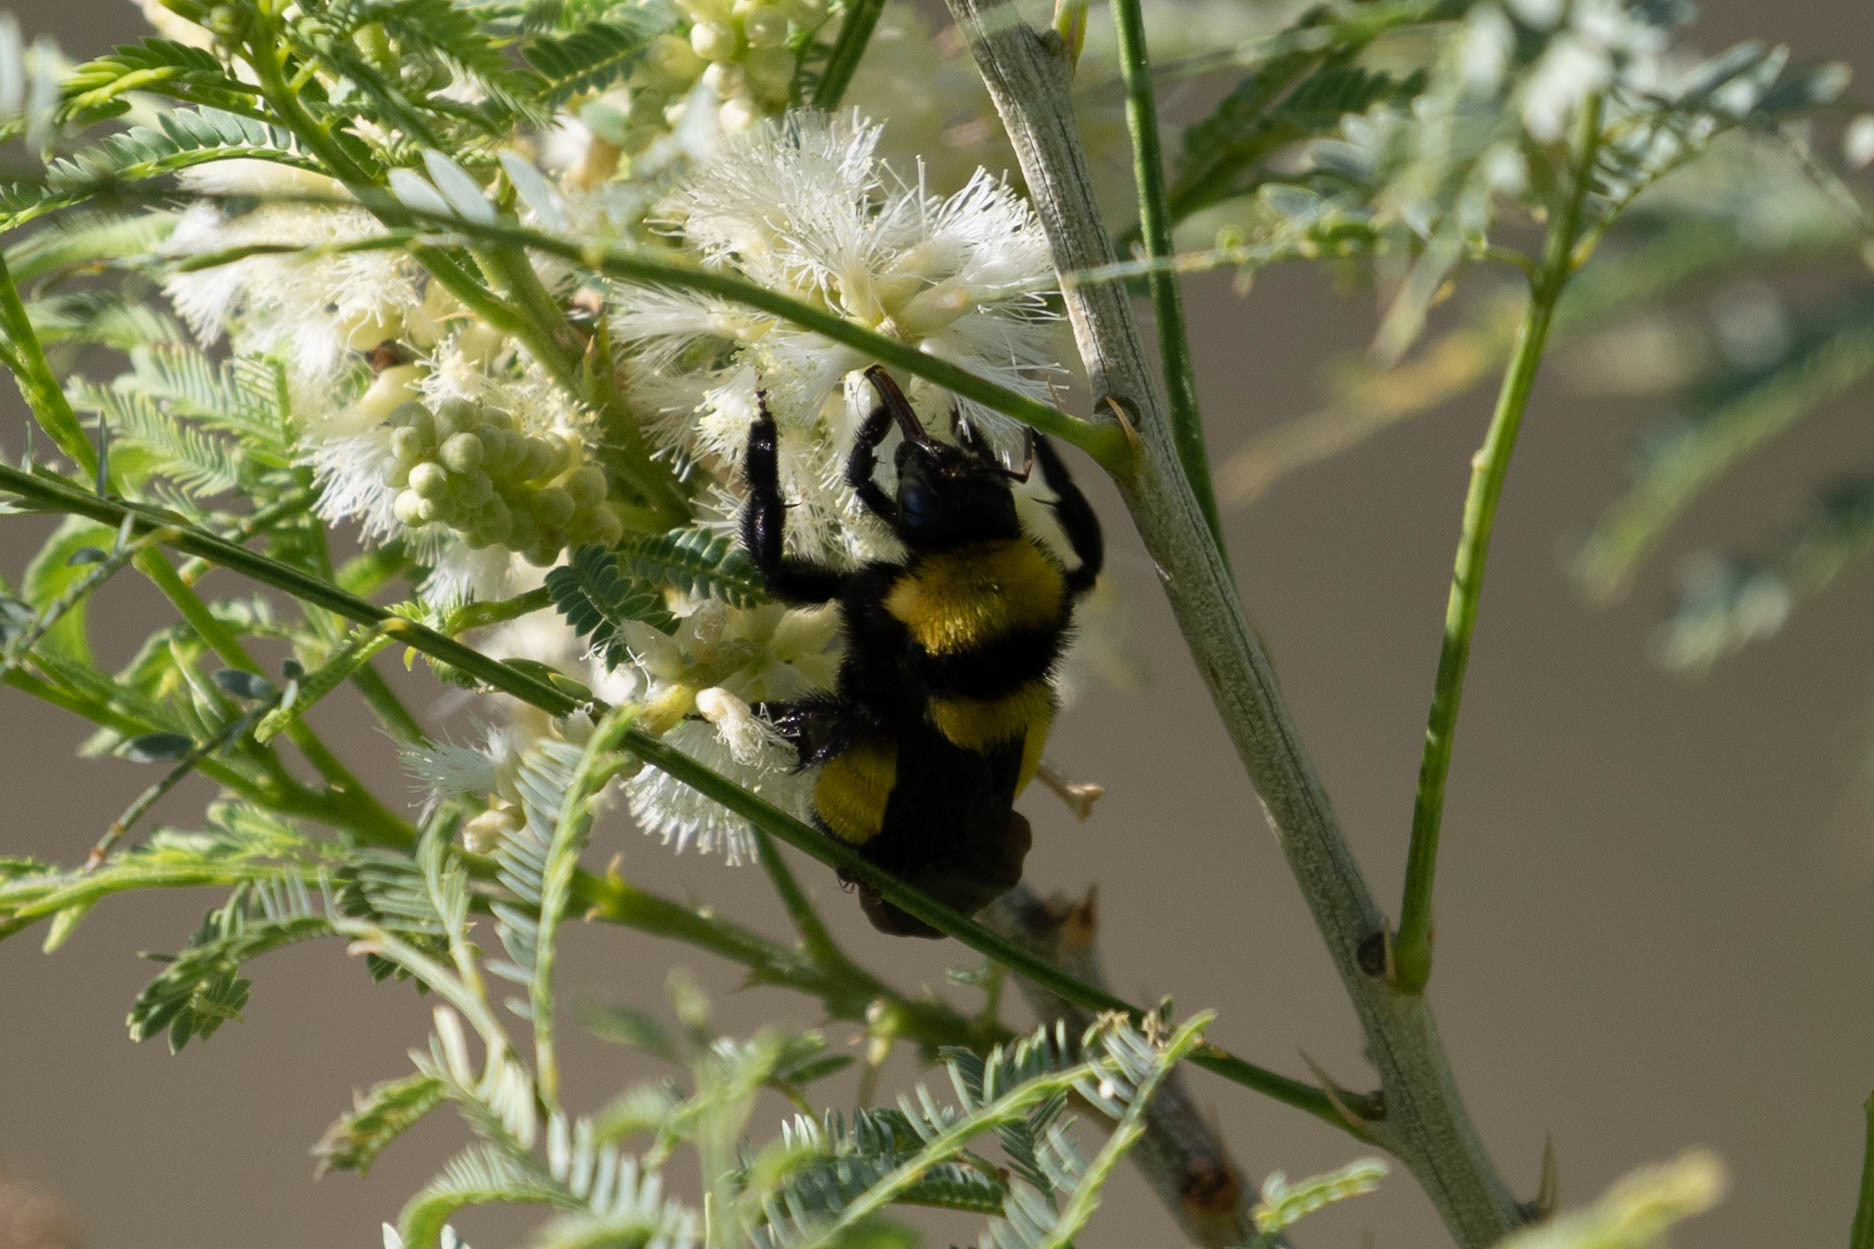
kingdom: Animalia
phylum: Arthropoda
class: Insecta
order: Hymenoptera
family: Apidae
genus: Bombus
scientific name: Bombus sonorus
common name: Sonoran bumble bee
